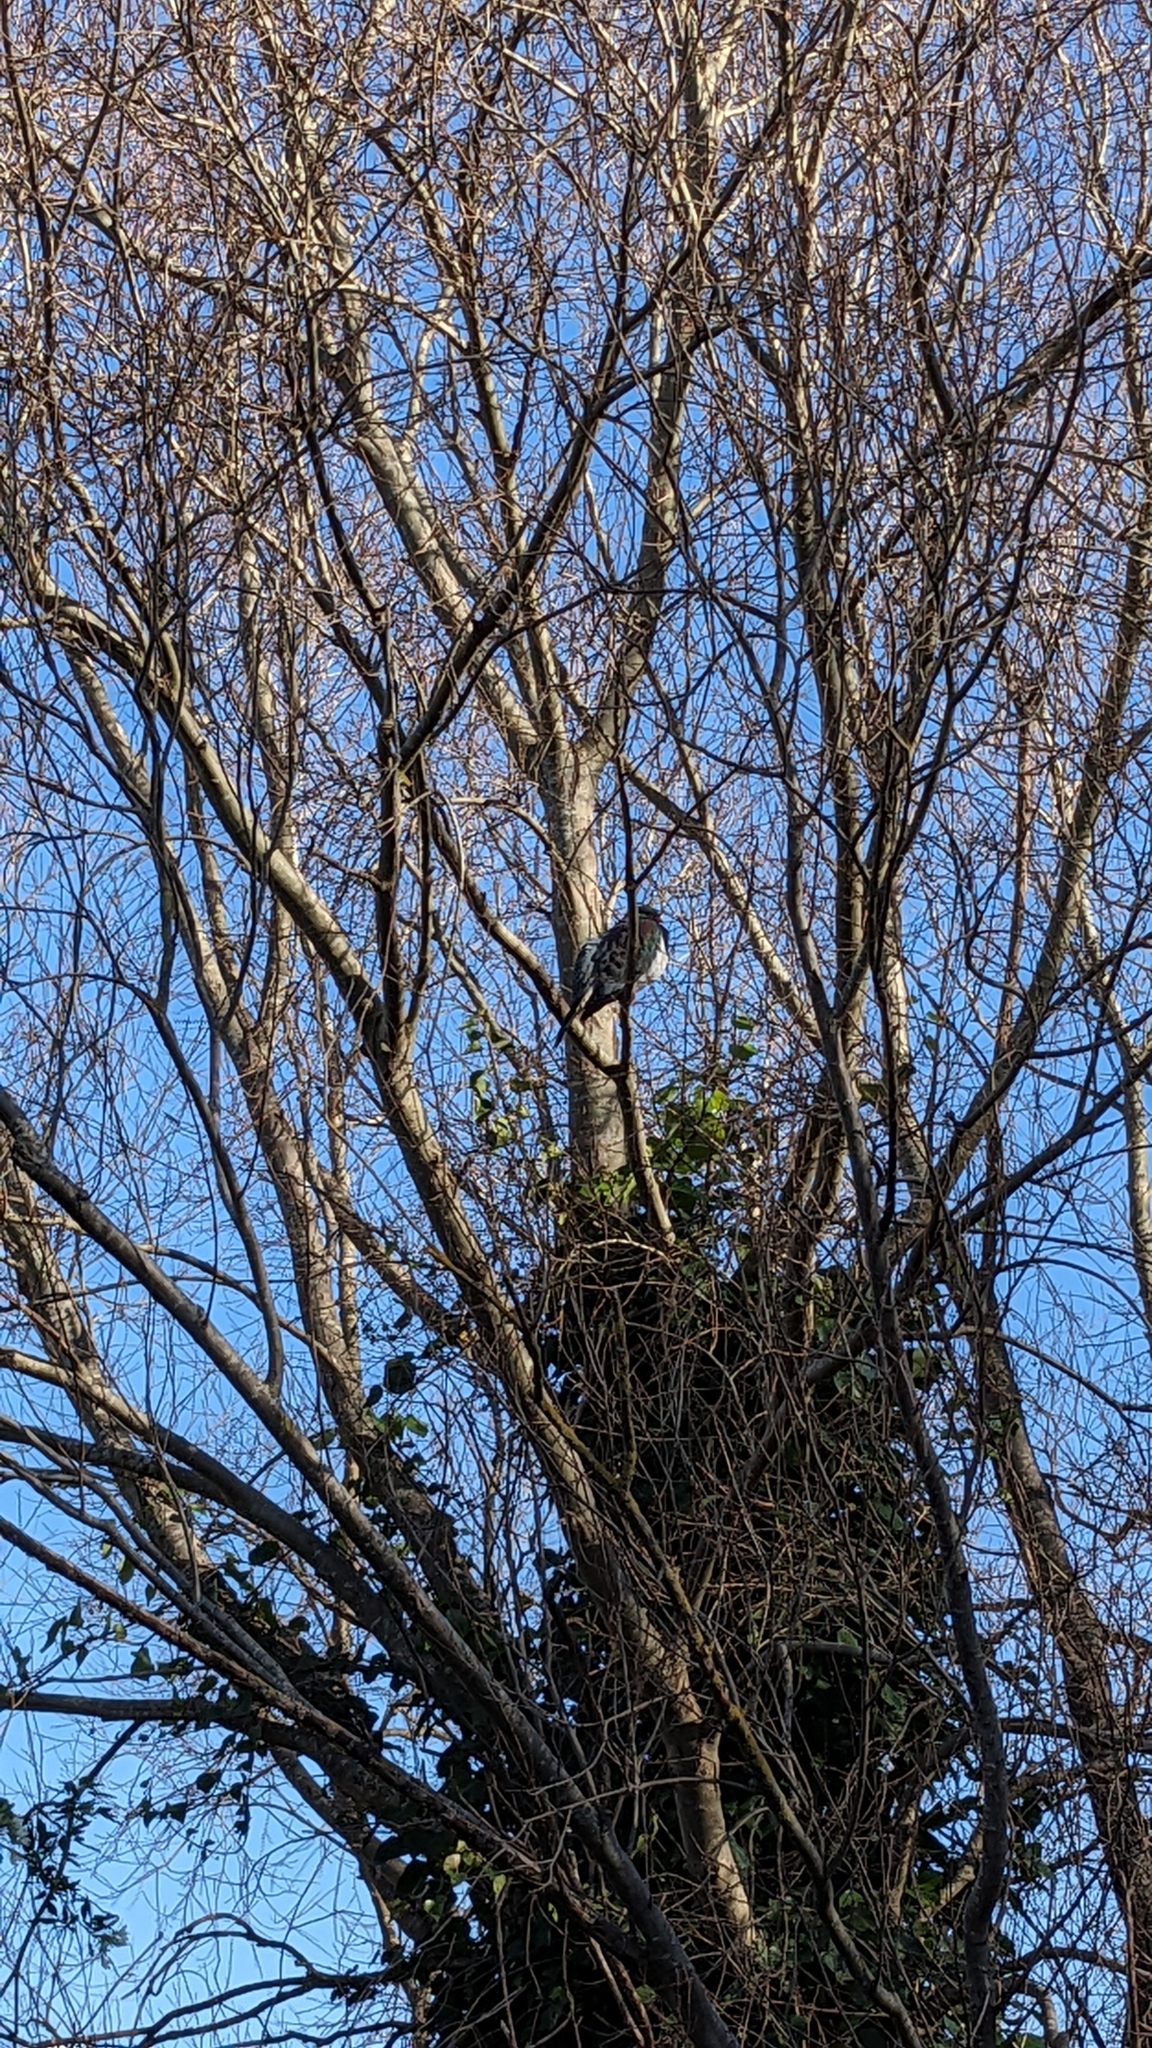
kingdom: Animalia
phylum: Chordata
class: Aves
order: Columbiformes
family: Columbidae
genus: Hemiphaga
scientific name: Hemiphaga novaeseelandiae
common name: New zealand pigeon
